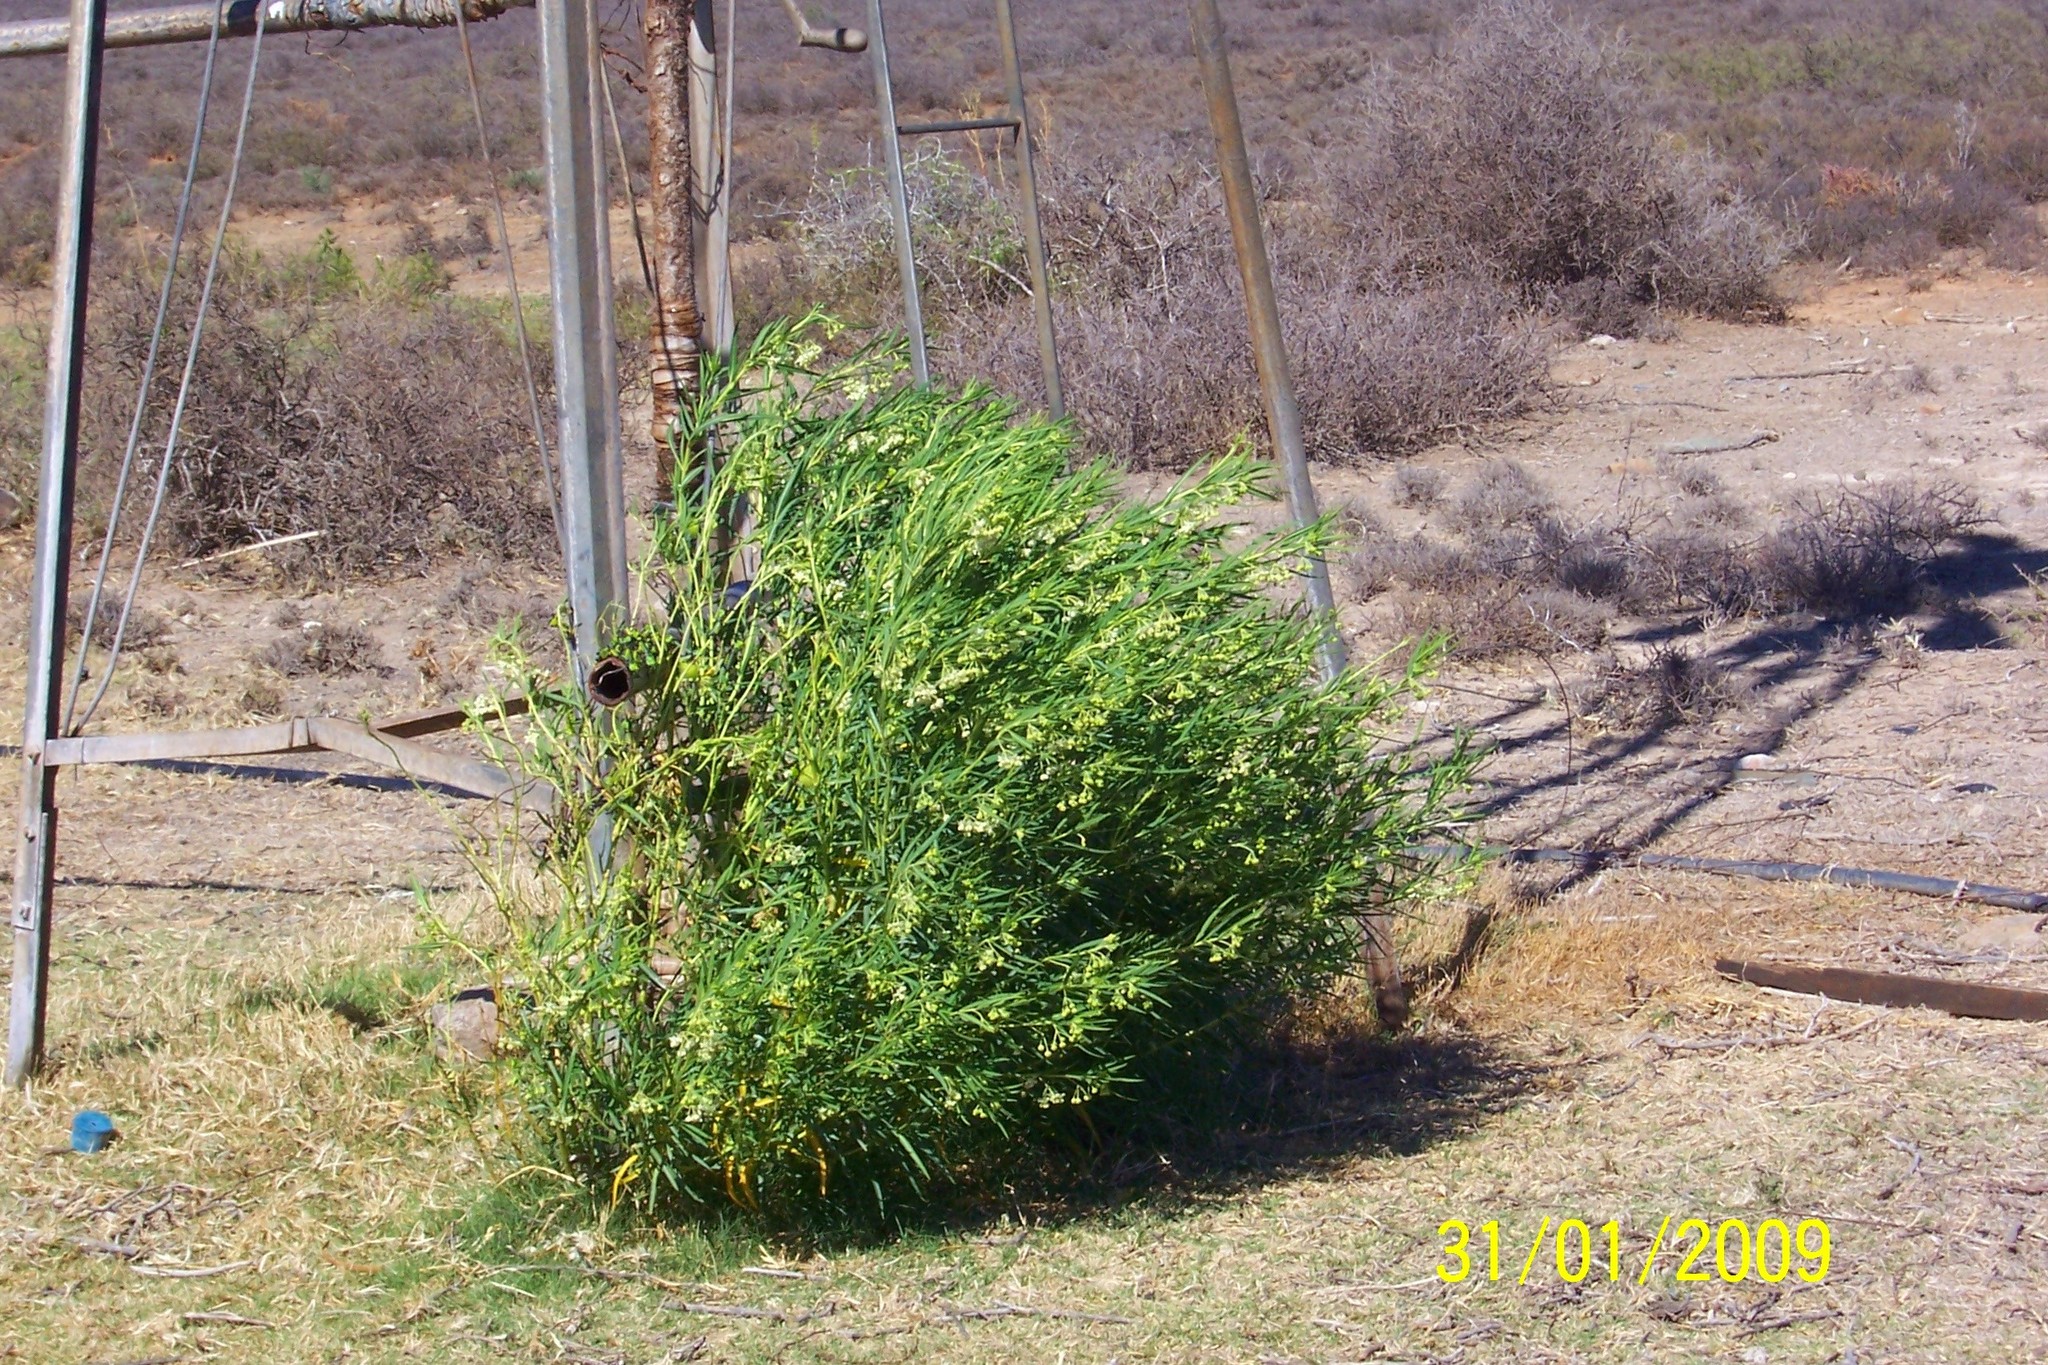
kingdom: Plantae
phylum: Tracheophyta
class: Magnoliopsida
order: Gentianales
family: Apocynaceae
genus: Gomphocarpus
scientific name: Gomphocarpus fruticosus
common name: Milkweed
